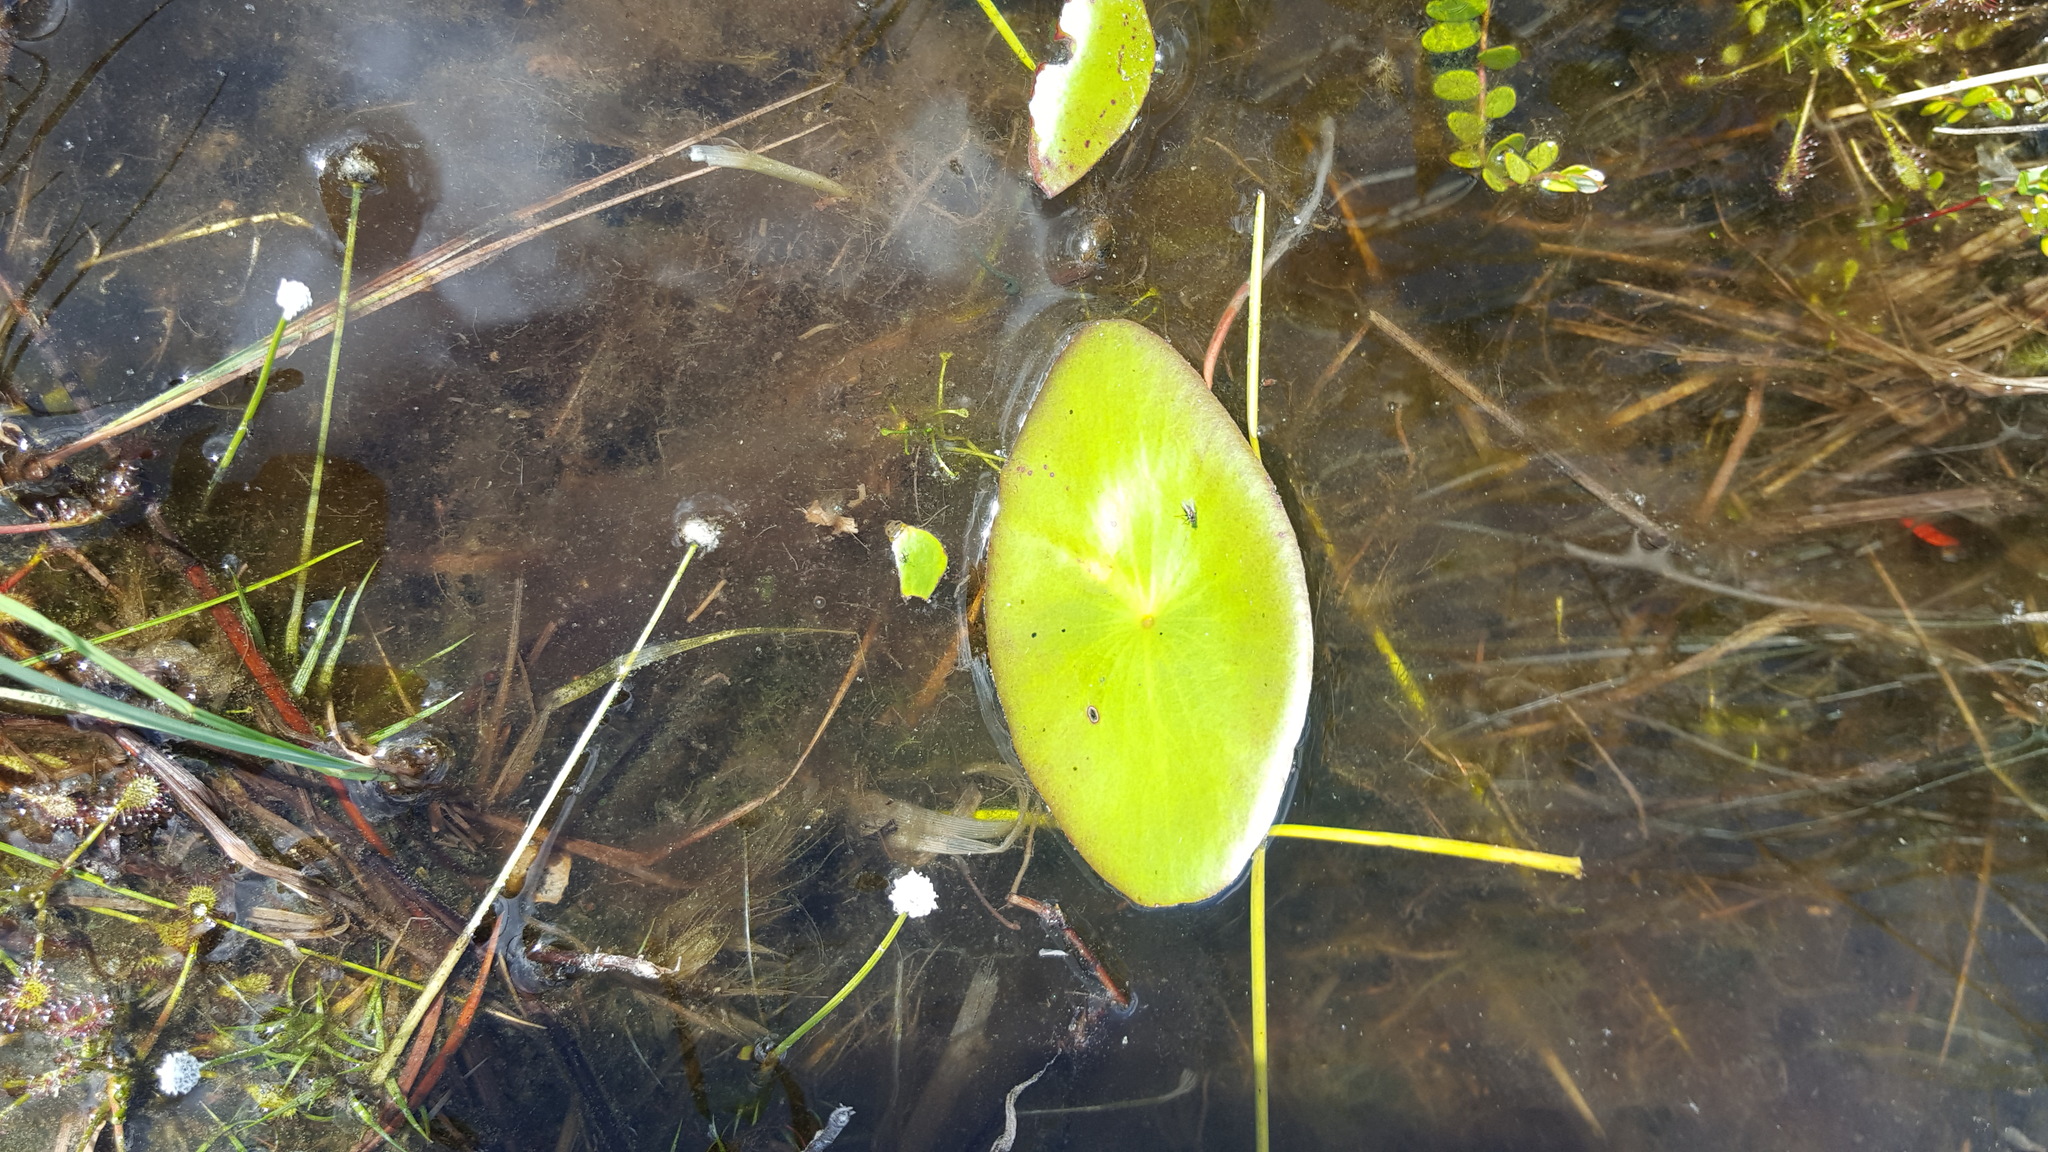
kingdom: Plantae
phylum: Tracheophyta
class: Magnoliopsida
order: Nymphaeales
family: Cabombaceae
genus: Brasenia
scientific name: Brasenia schreberi
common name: Water-shield
